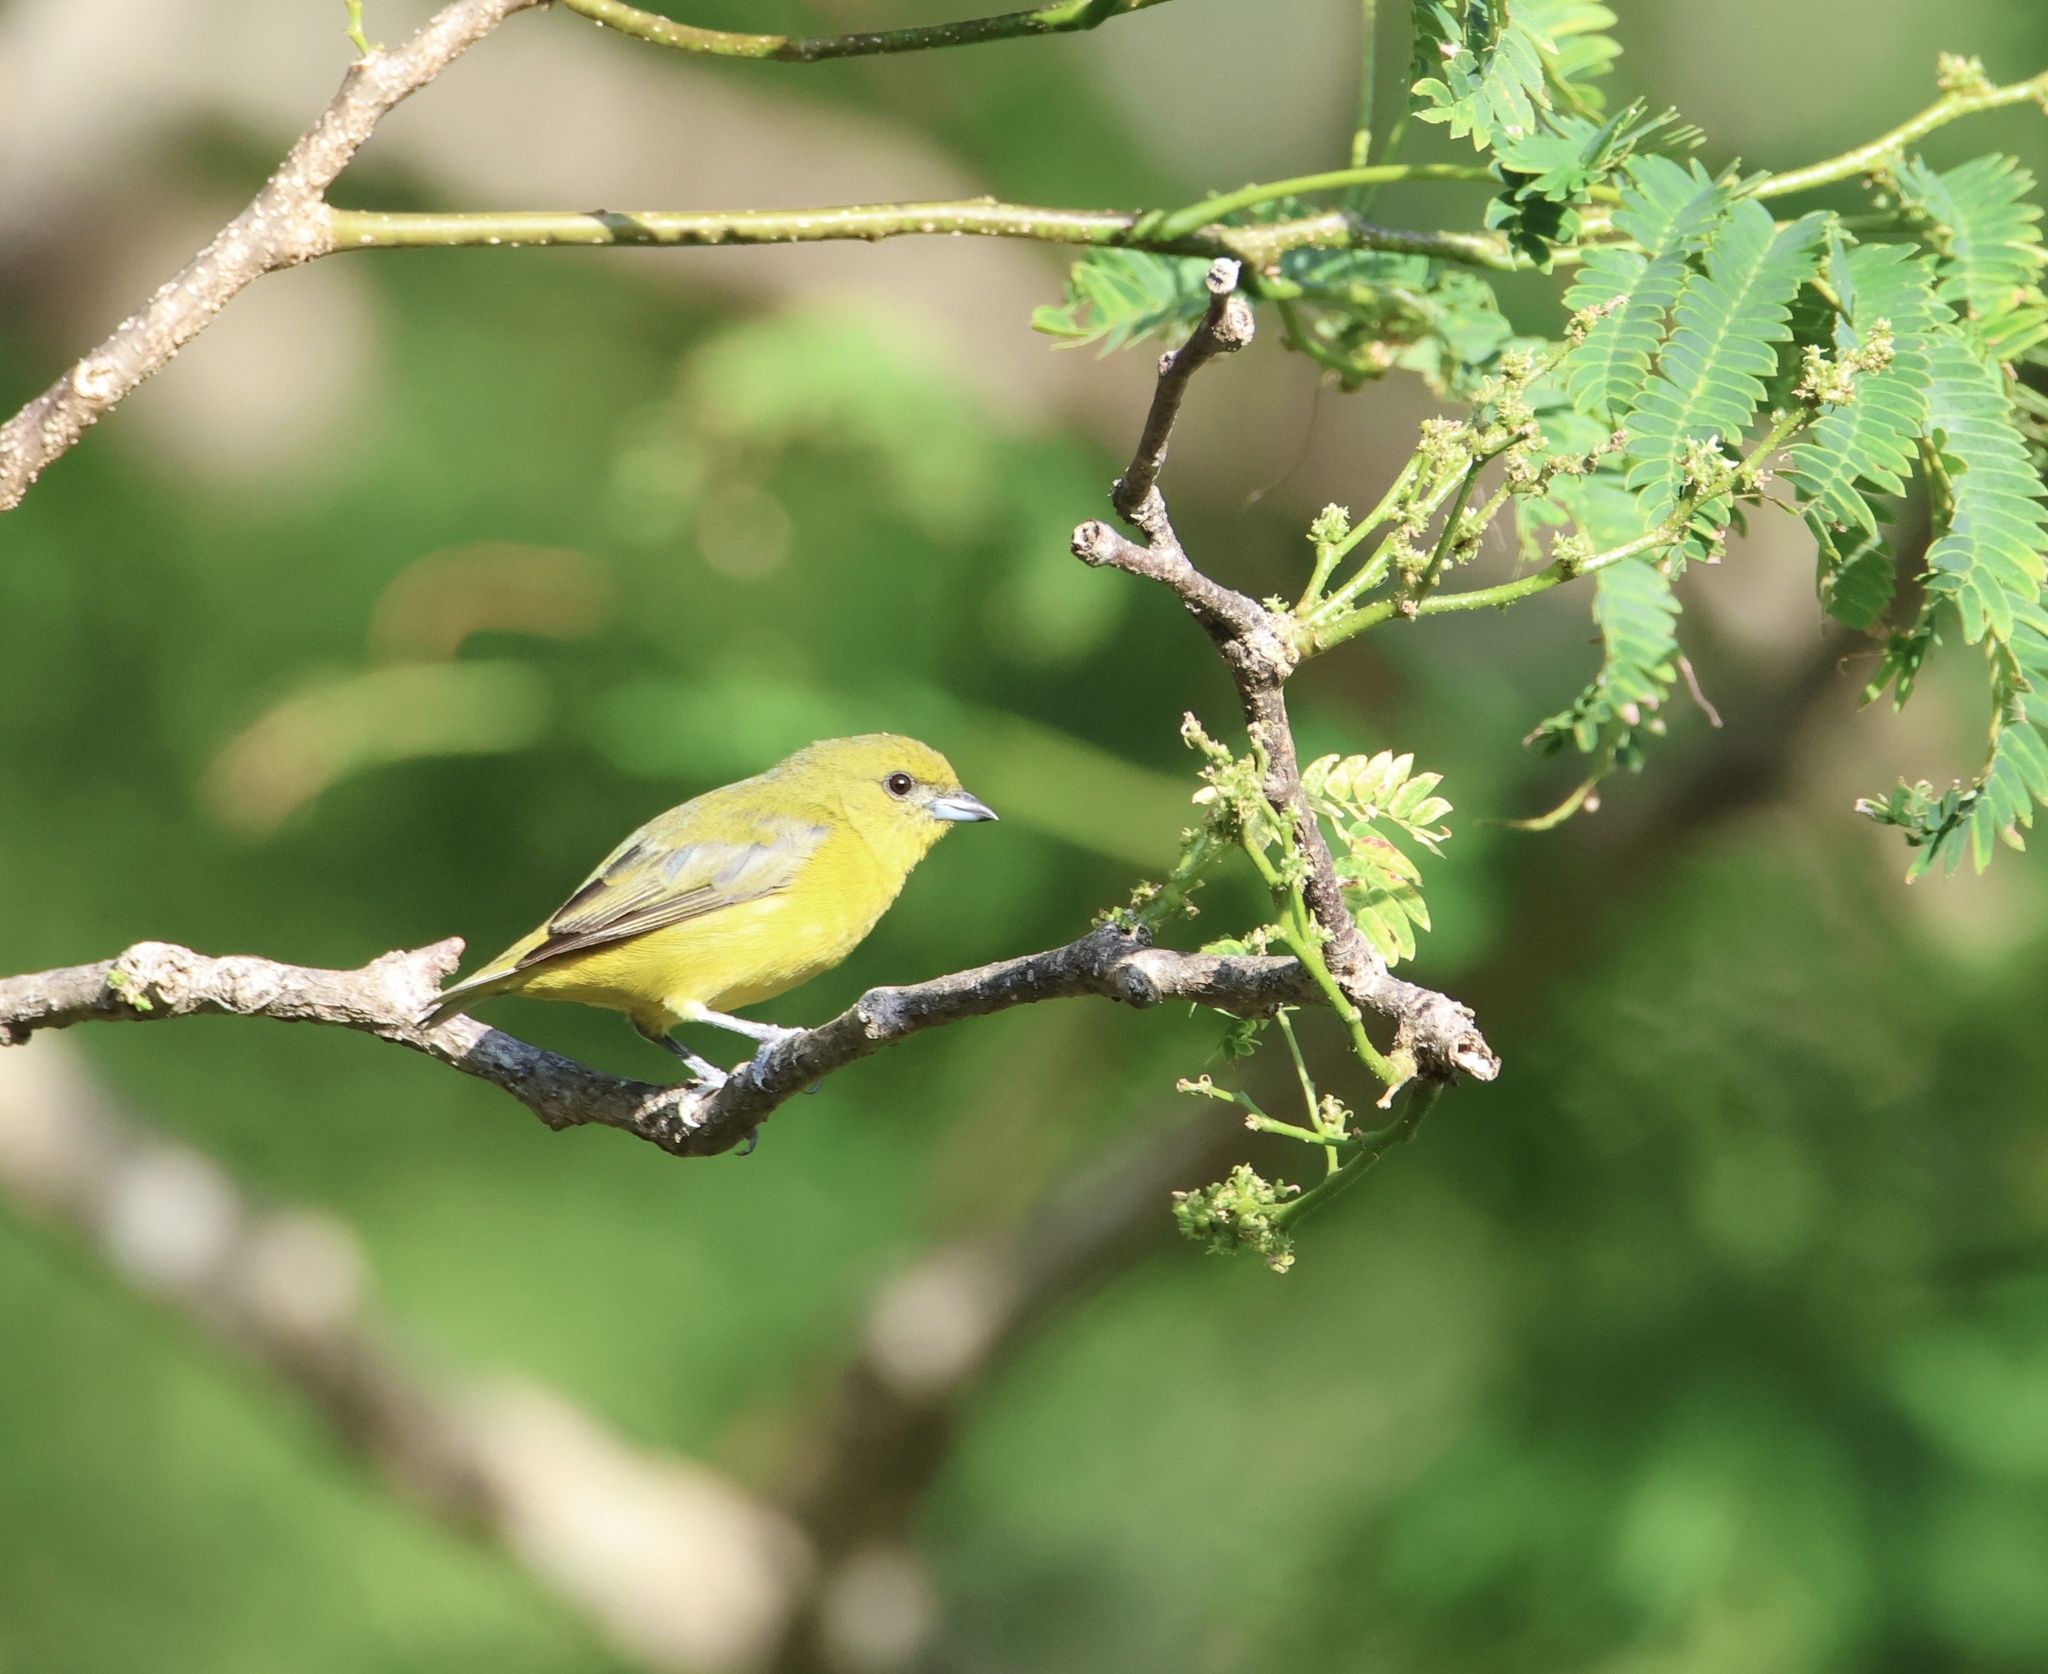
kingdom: Animalia
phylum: Chordata
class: Aves
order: Passeriformes
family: Fringillidae
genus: Euphonia
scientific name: Euphonia luteicapilla
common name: Yellow-crowned euphonia
